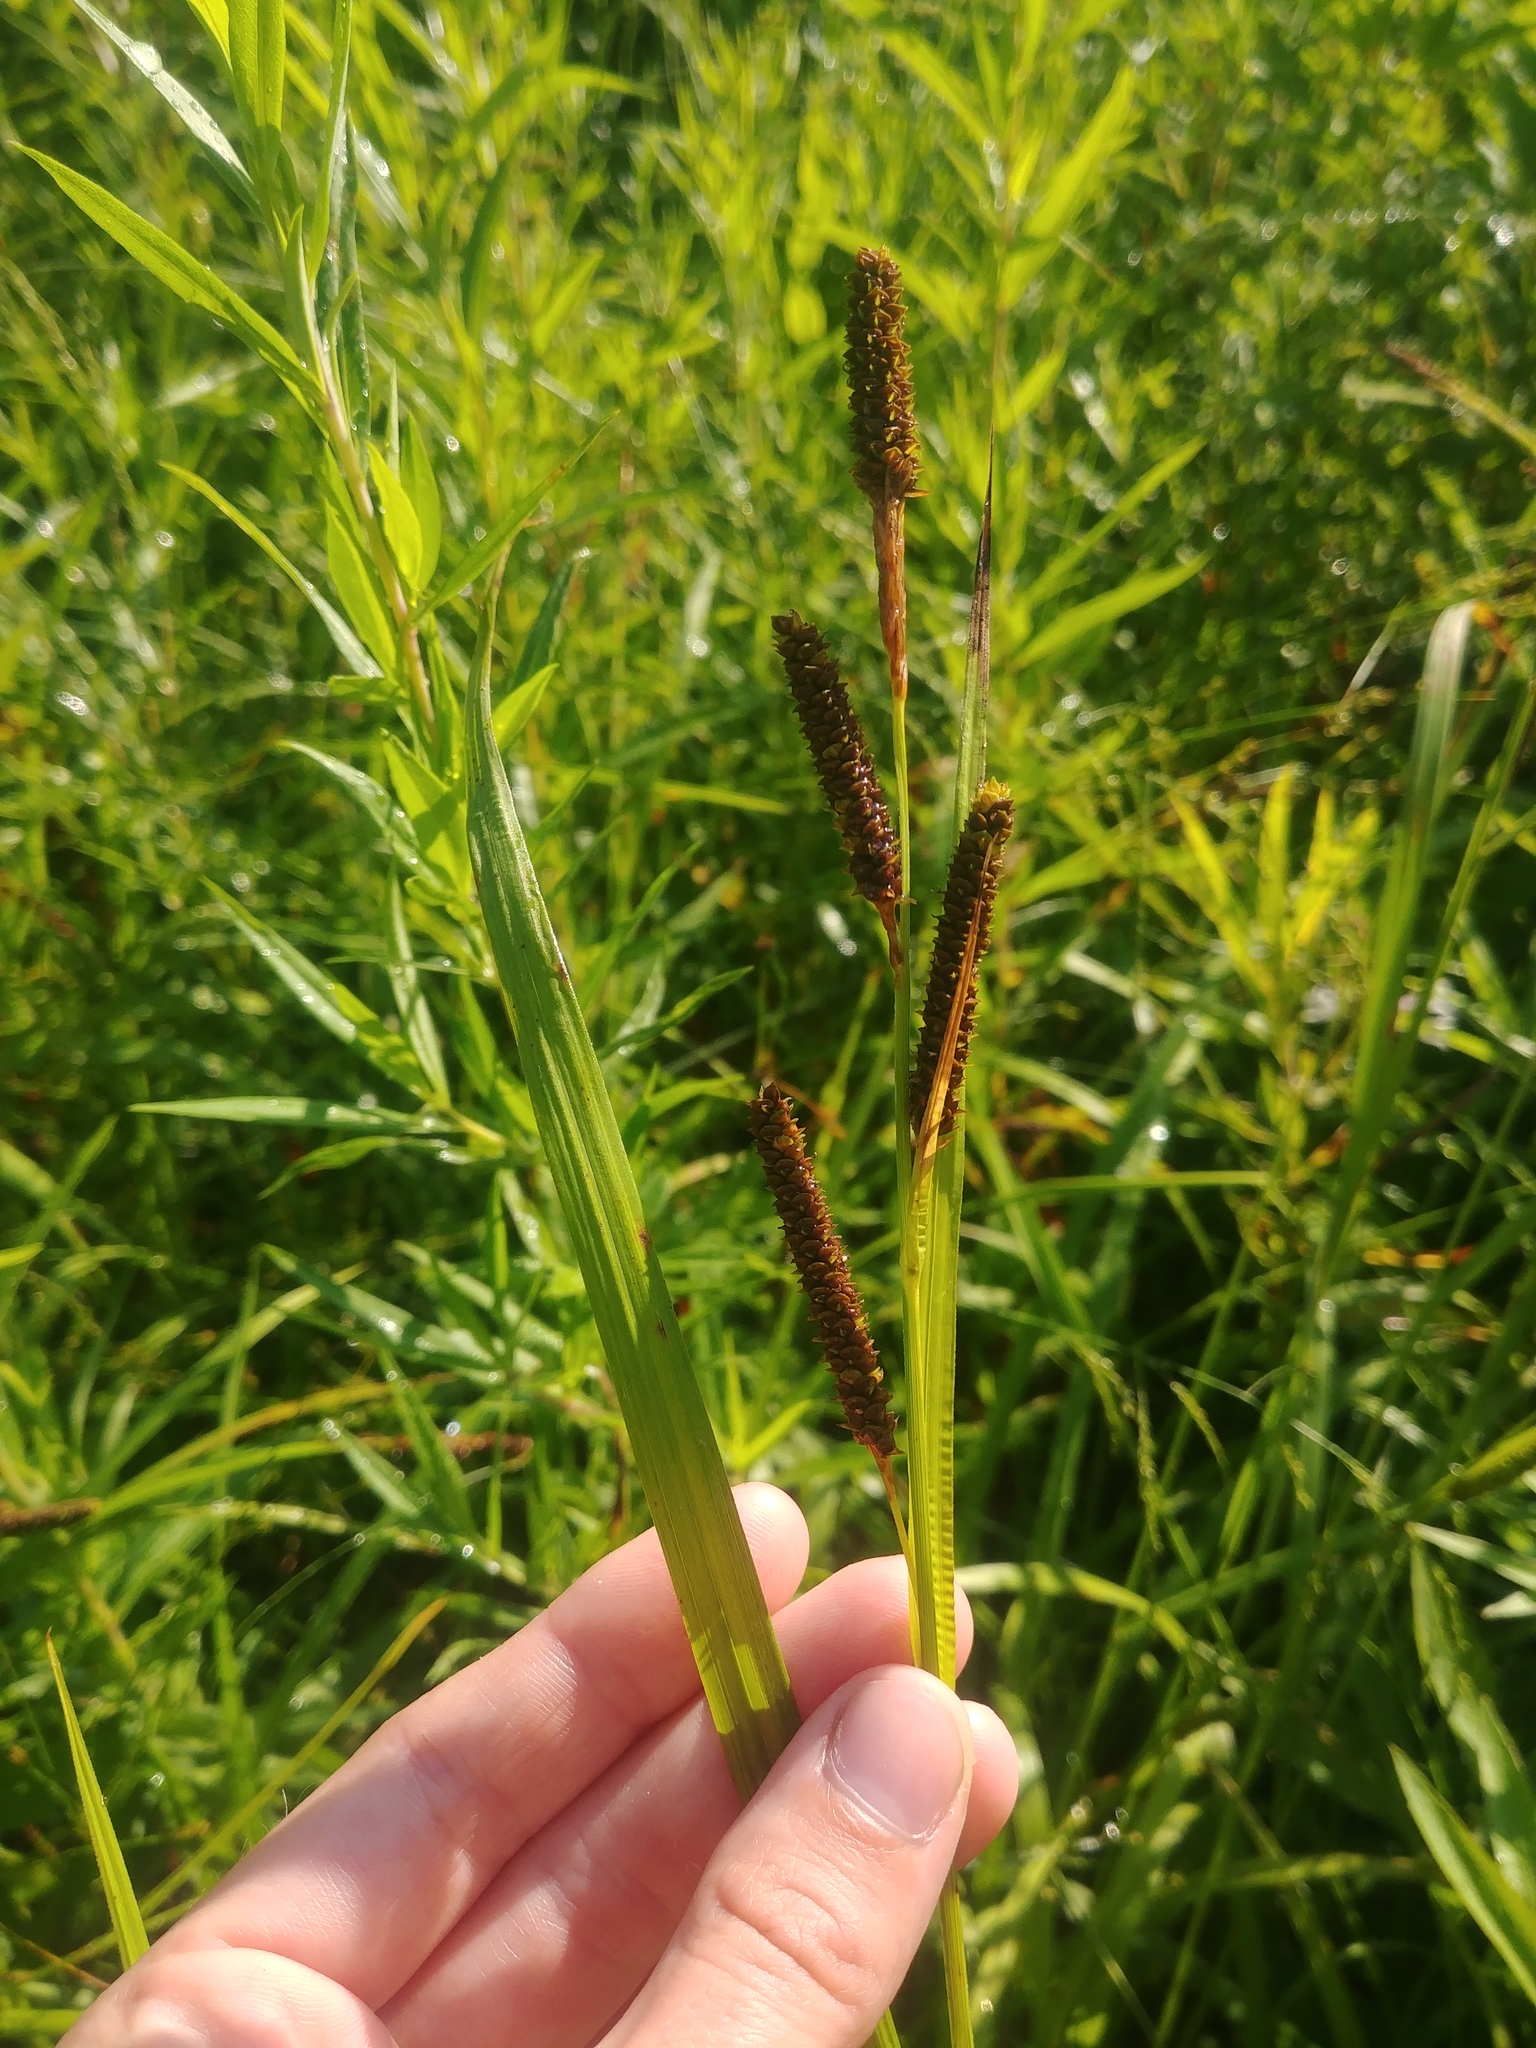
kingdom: Plantae
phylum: Tracheophyta
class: Liliopsida
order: Poales
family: Cyperaceae
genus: Carex
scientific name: Carex shortiana
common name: Short's sedge
